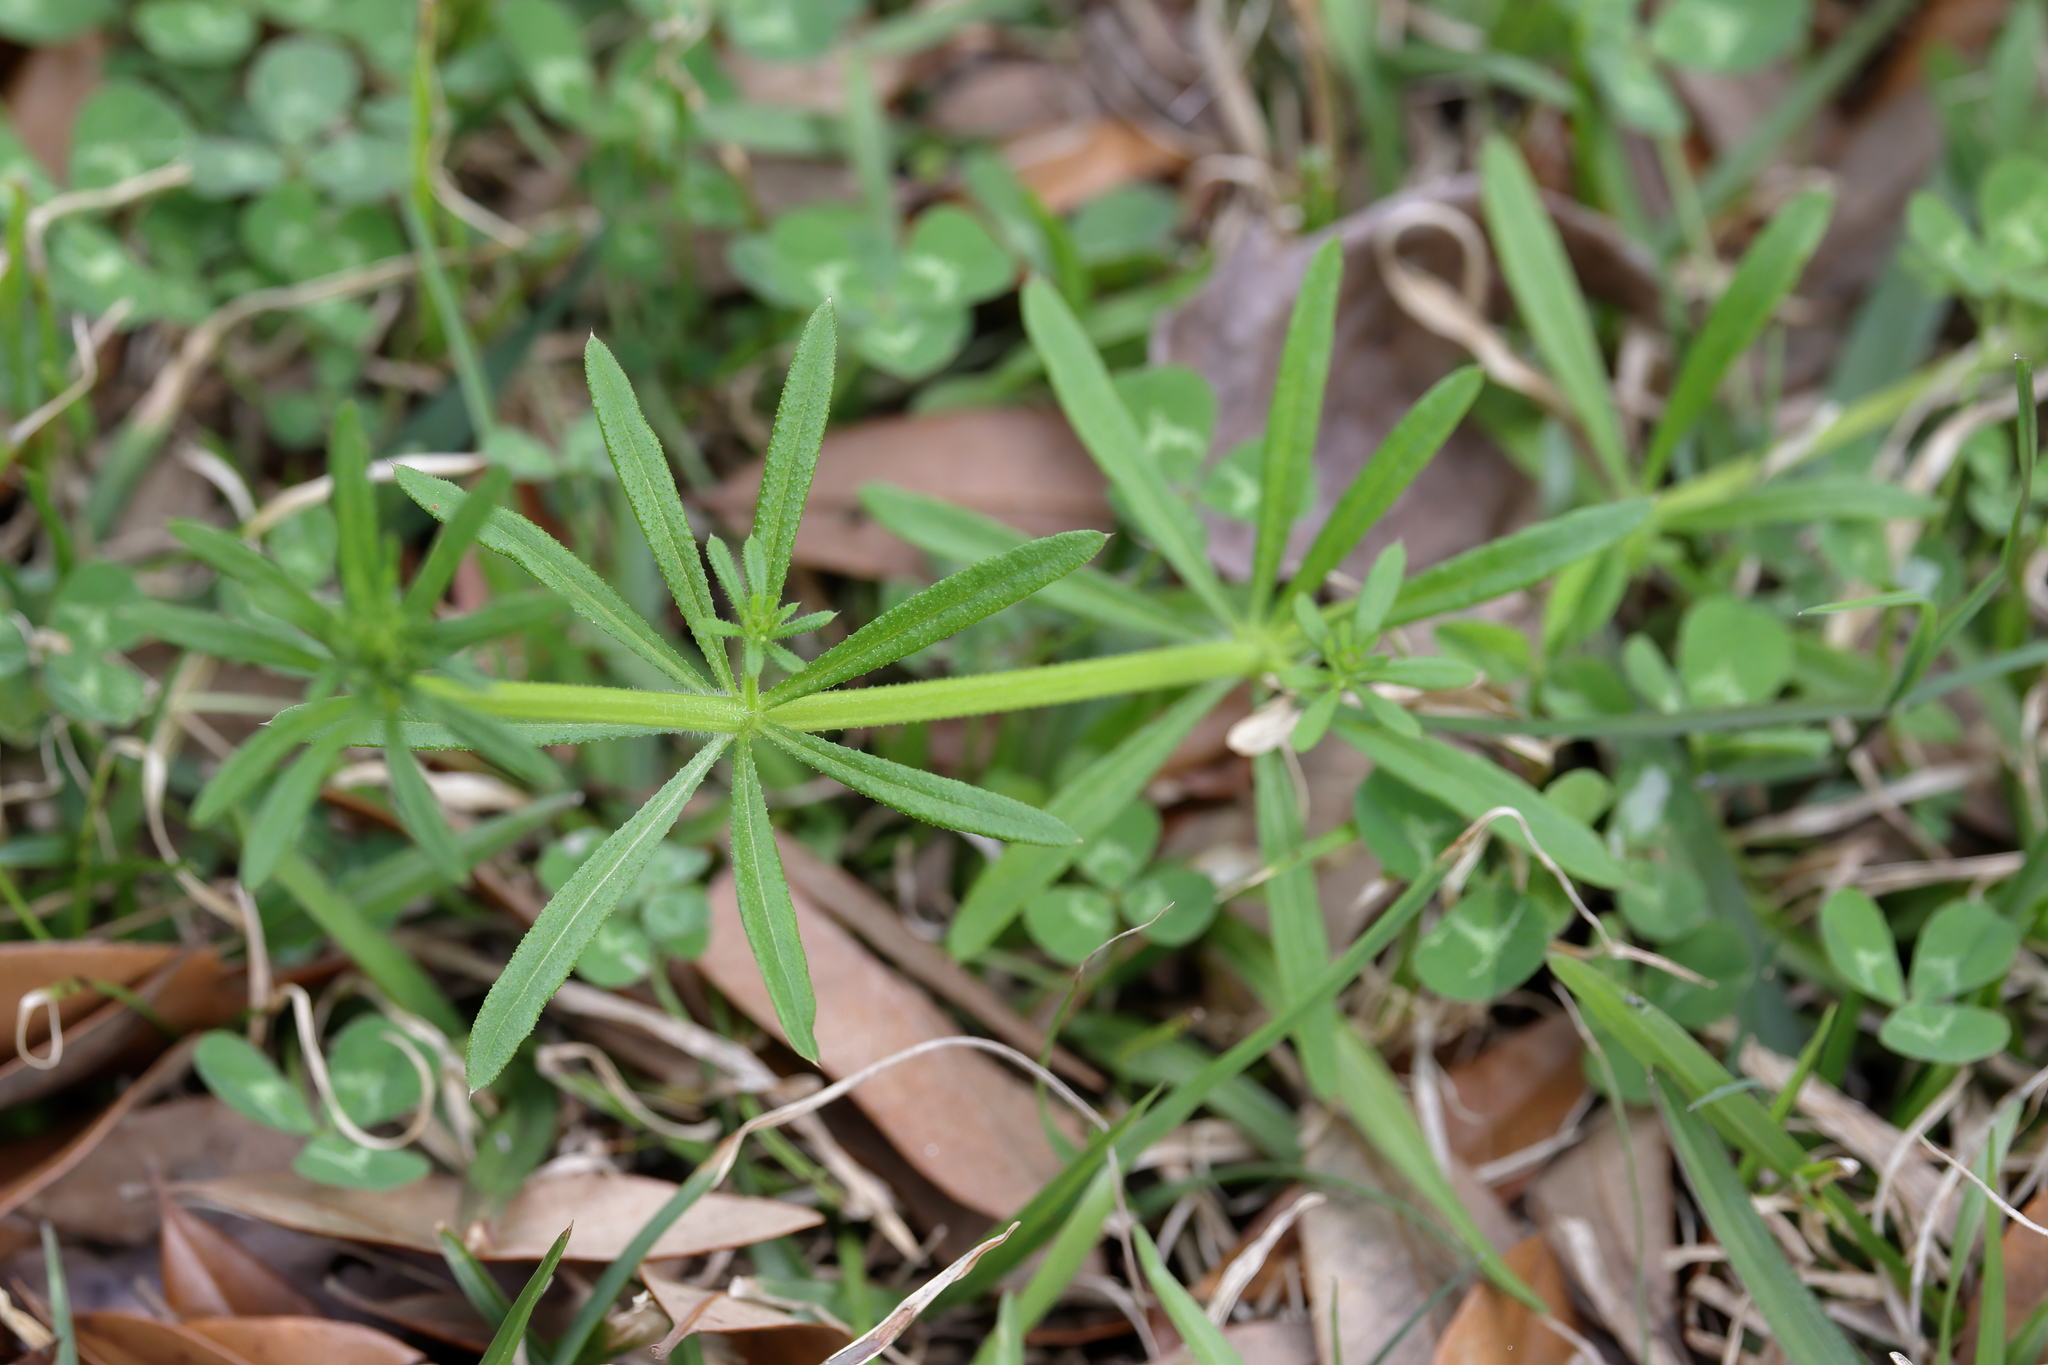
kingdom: Plantae
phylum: Tracheophyta
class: Magnoliopsida
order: Gentianales
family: Rubiaceae
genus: Galium
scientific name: Galium aparine
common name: Cleavers
